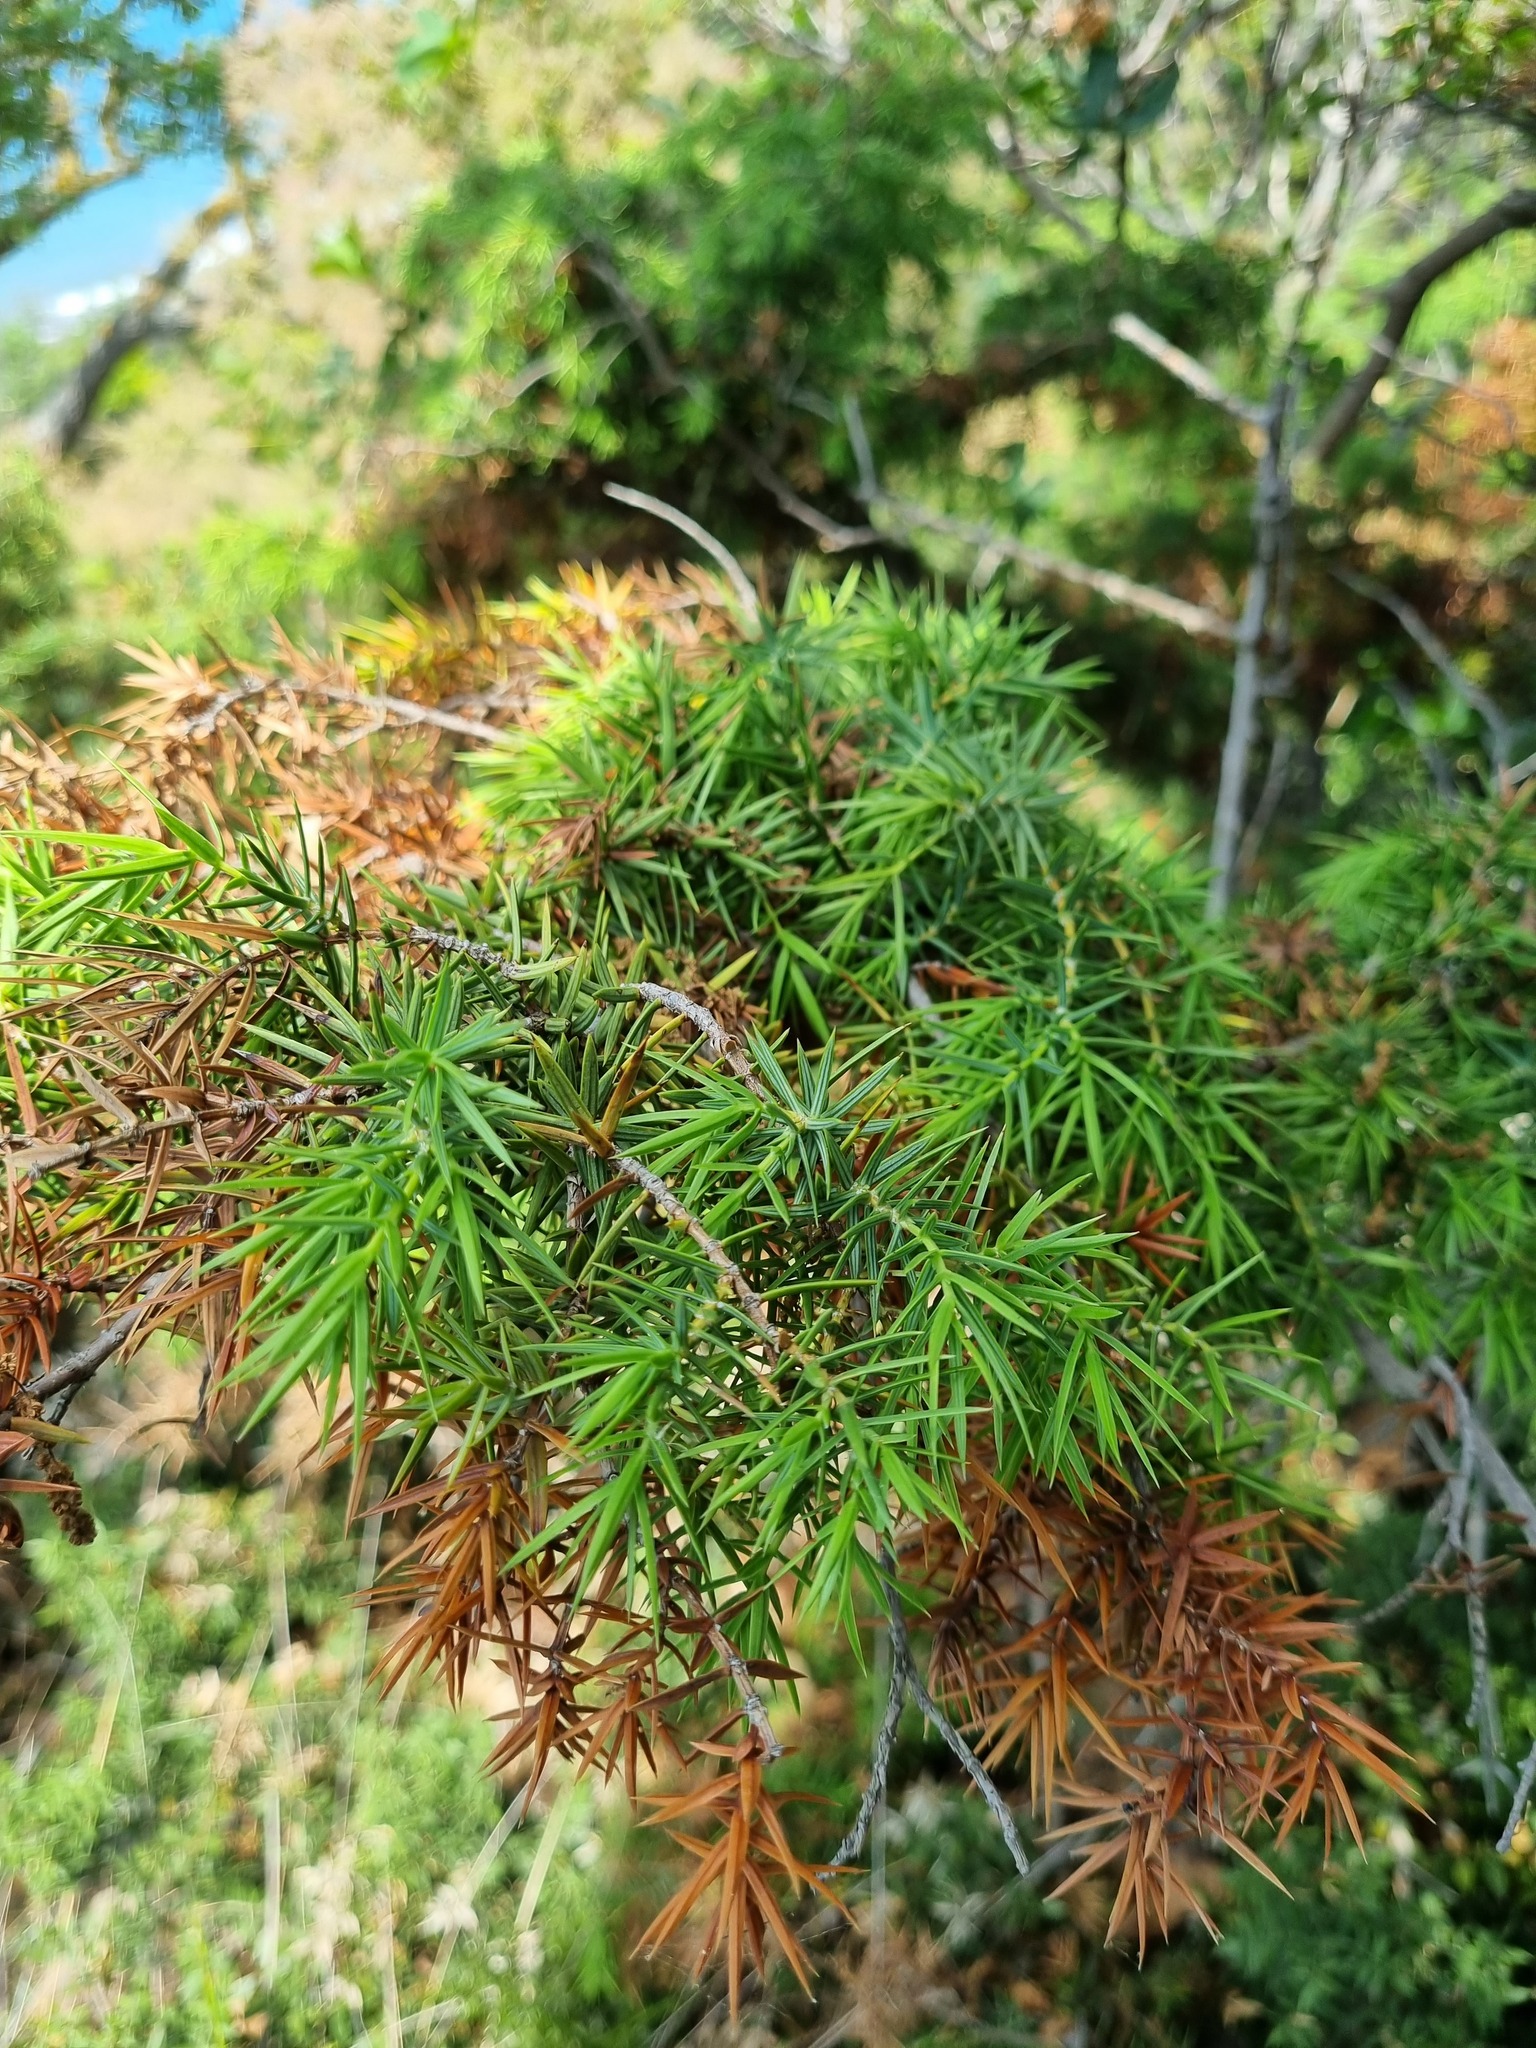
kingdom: Plantae
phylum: Tracheophyta
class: Pinopsida
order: Pinales
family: Cupressaceae
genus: Juniperus
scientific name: Juniperus oxycedrus
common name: Prickly juniper
